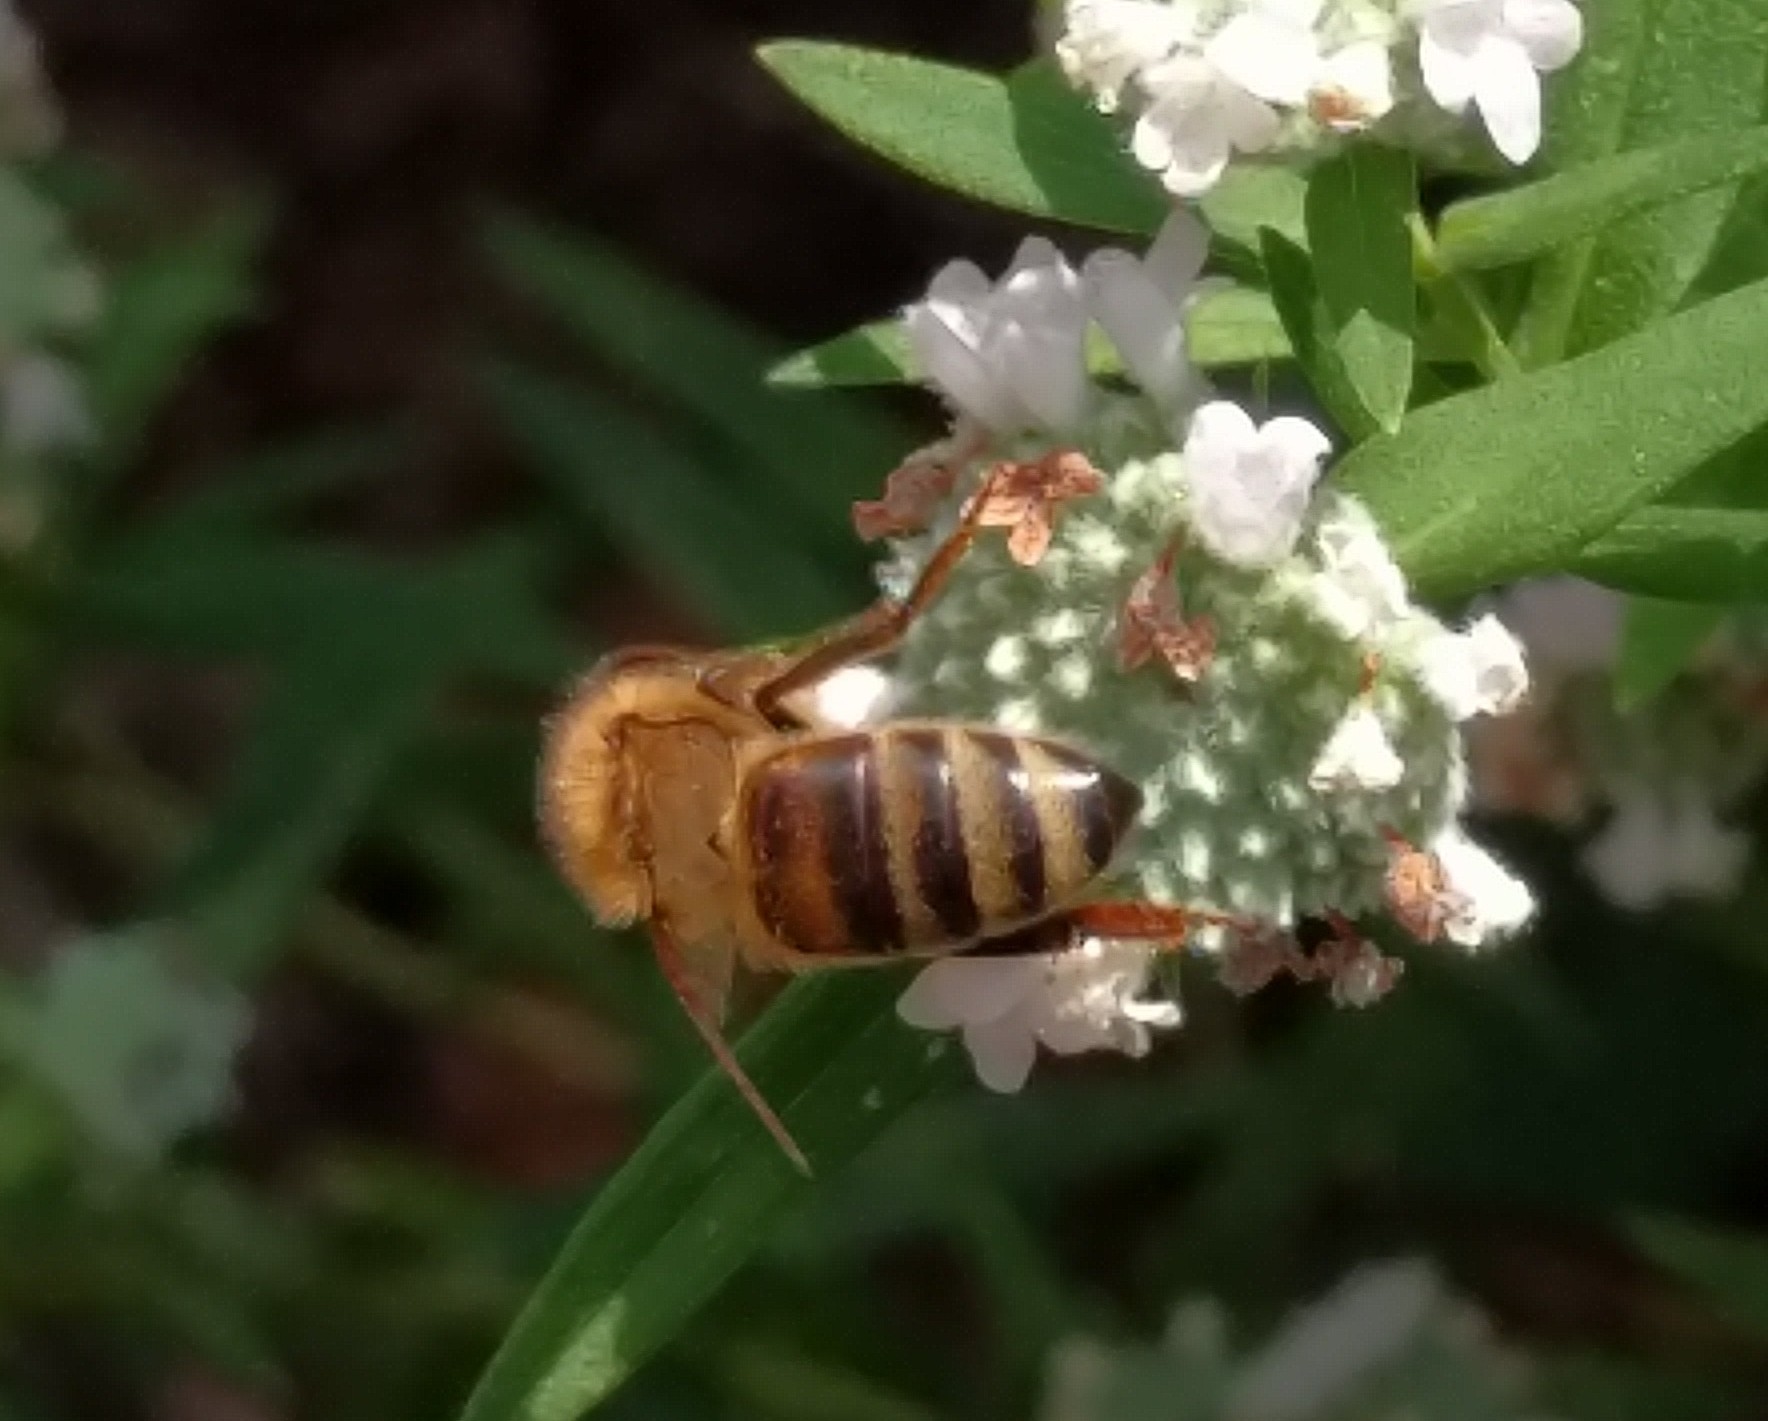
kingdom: Animalia
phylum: Arthropoda
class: Insecta
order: Hymenoptera
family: Apidae
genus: Apis
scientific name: Apis mellifera
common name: Honey bee
